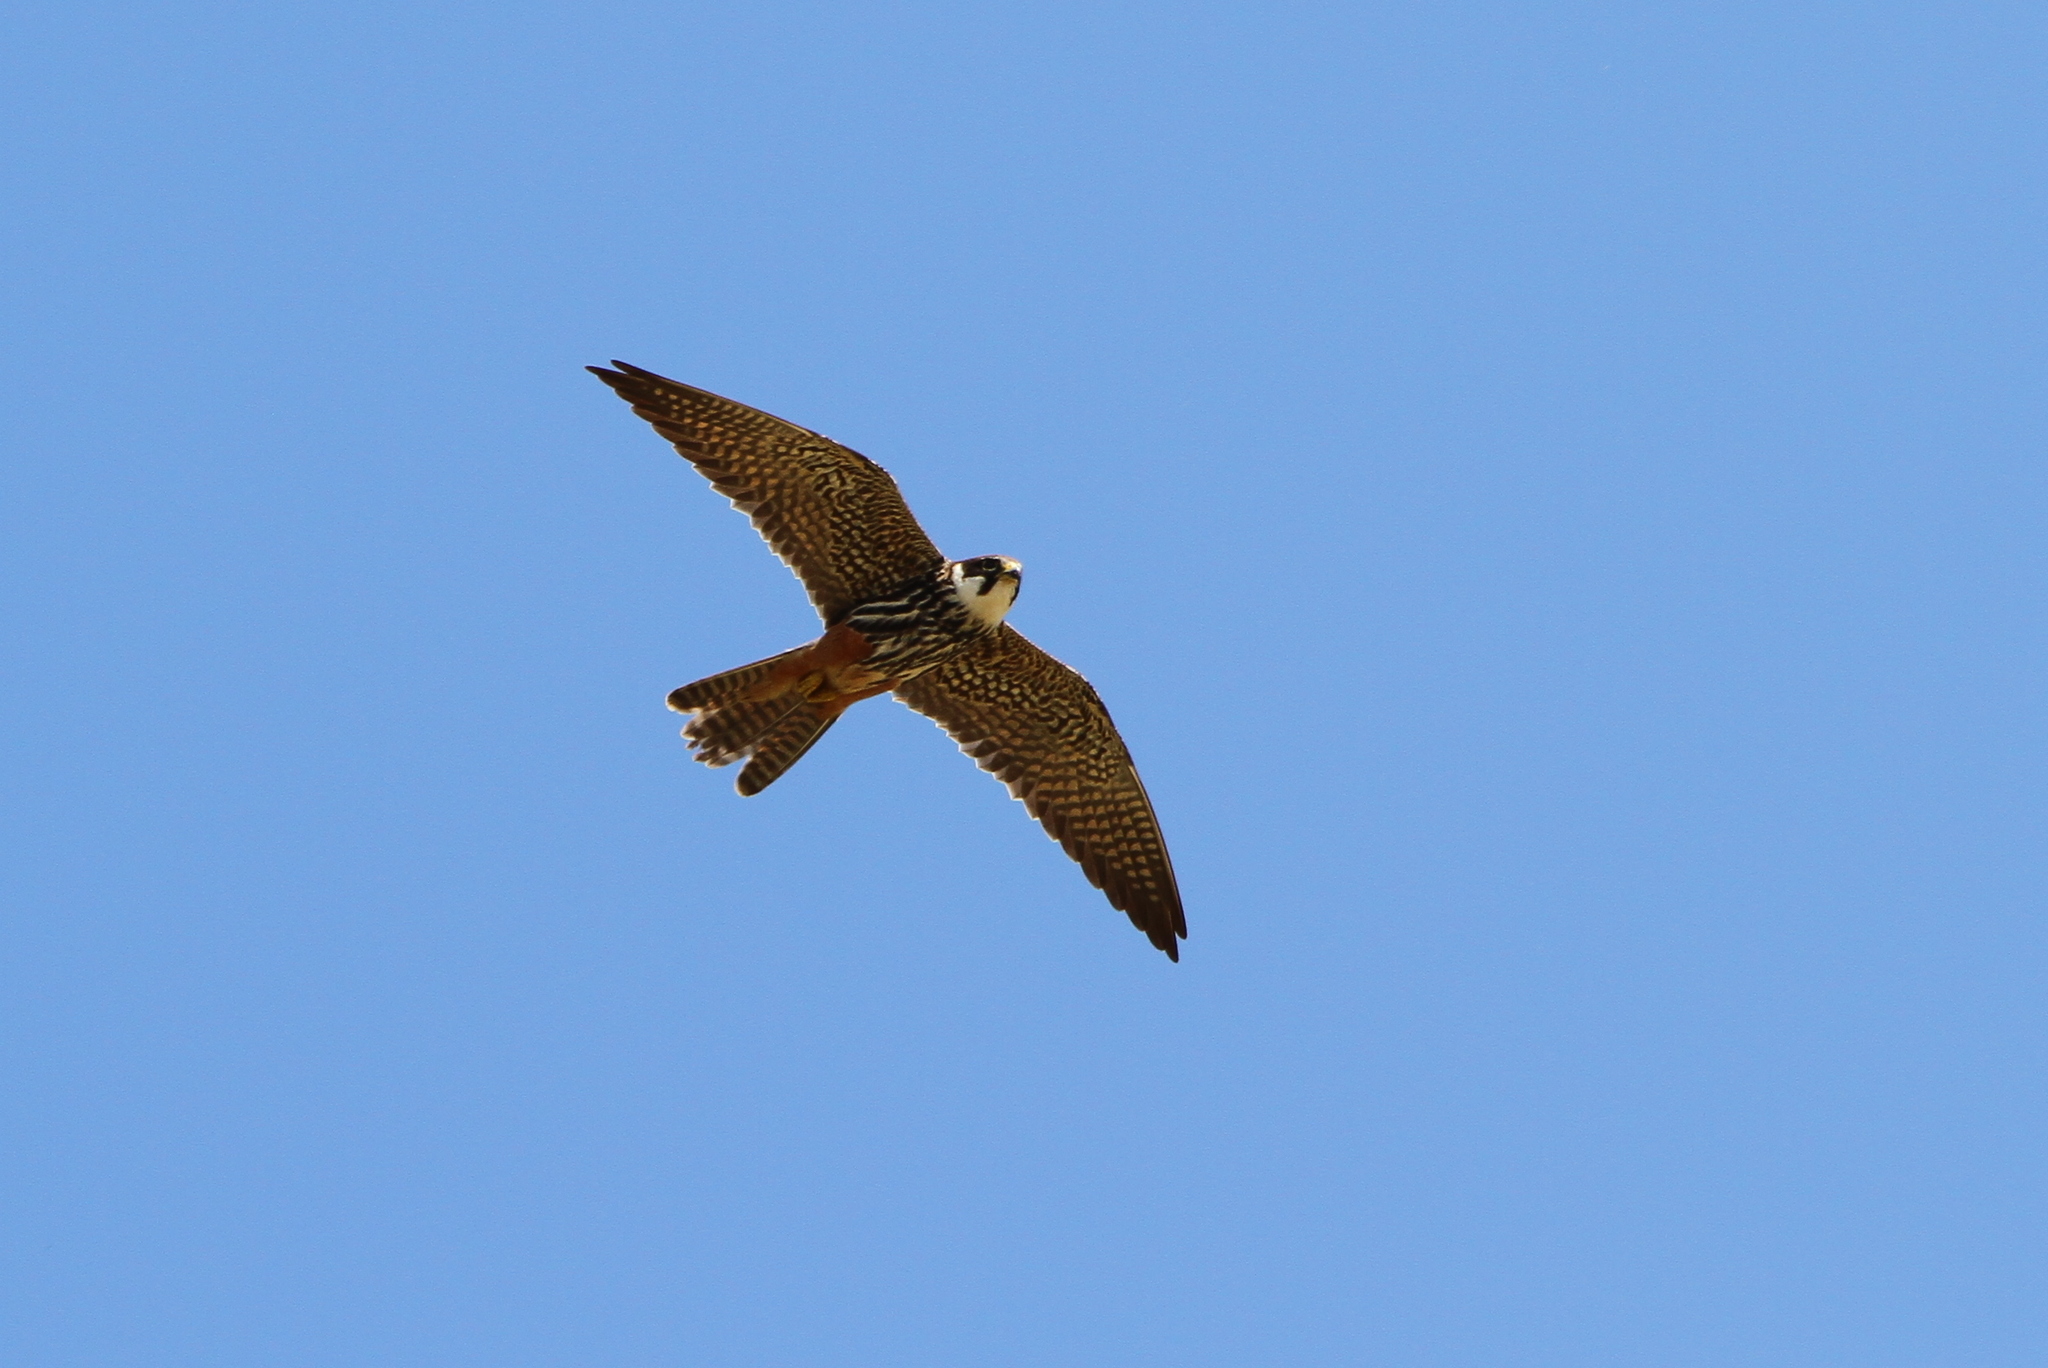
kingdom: Animalia
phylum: Chordata
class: Aves
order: Falconiformes
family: Falconidae
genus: Falco
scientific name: Falco subbuteo
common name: Eurasian hobby
